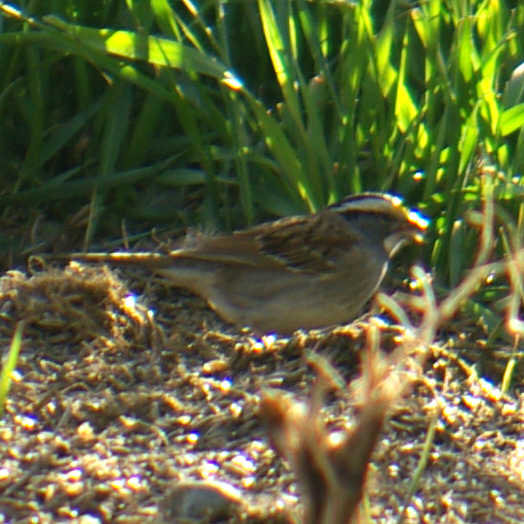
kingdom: Animalia
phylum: Chordata
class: Aves
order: Passeriformes
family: Passerellidae
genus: Zonotrichia
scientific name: Zonotrichia albicollis
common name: White-throated sparrow
